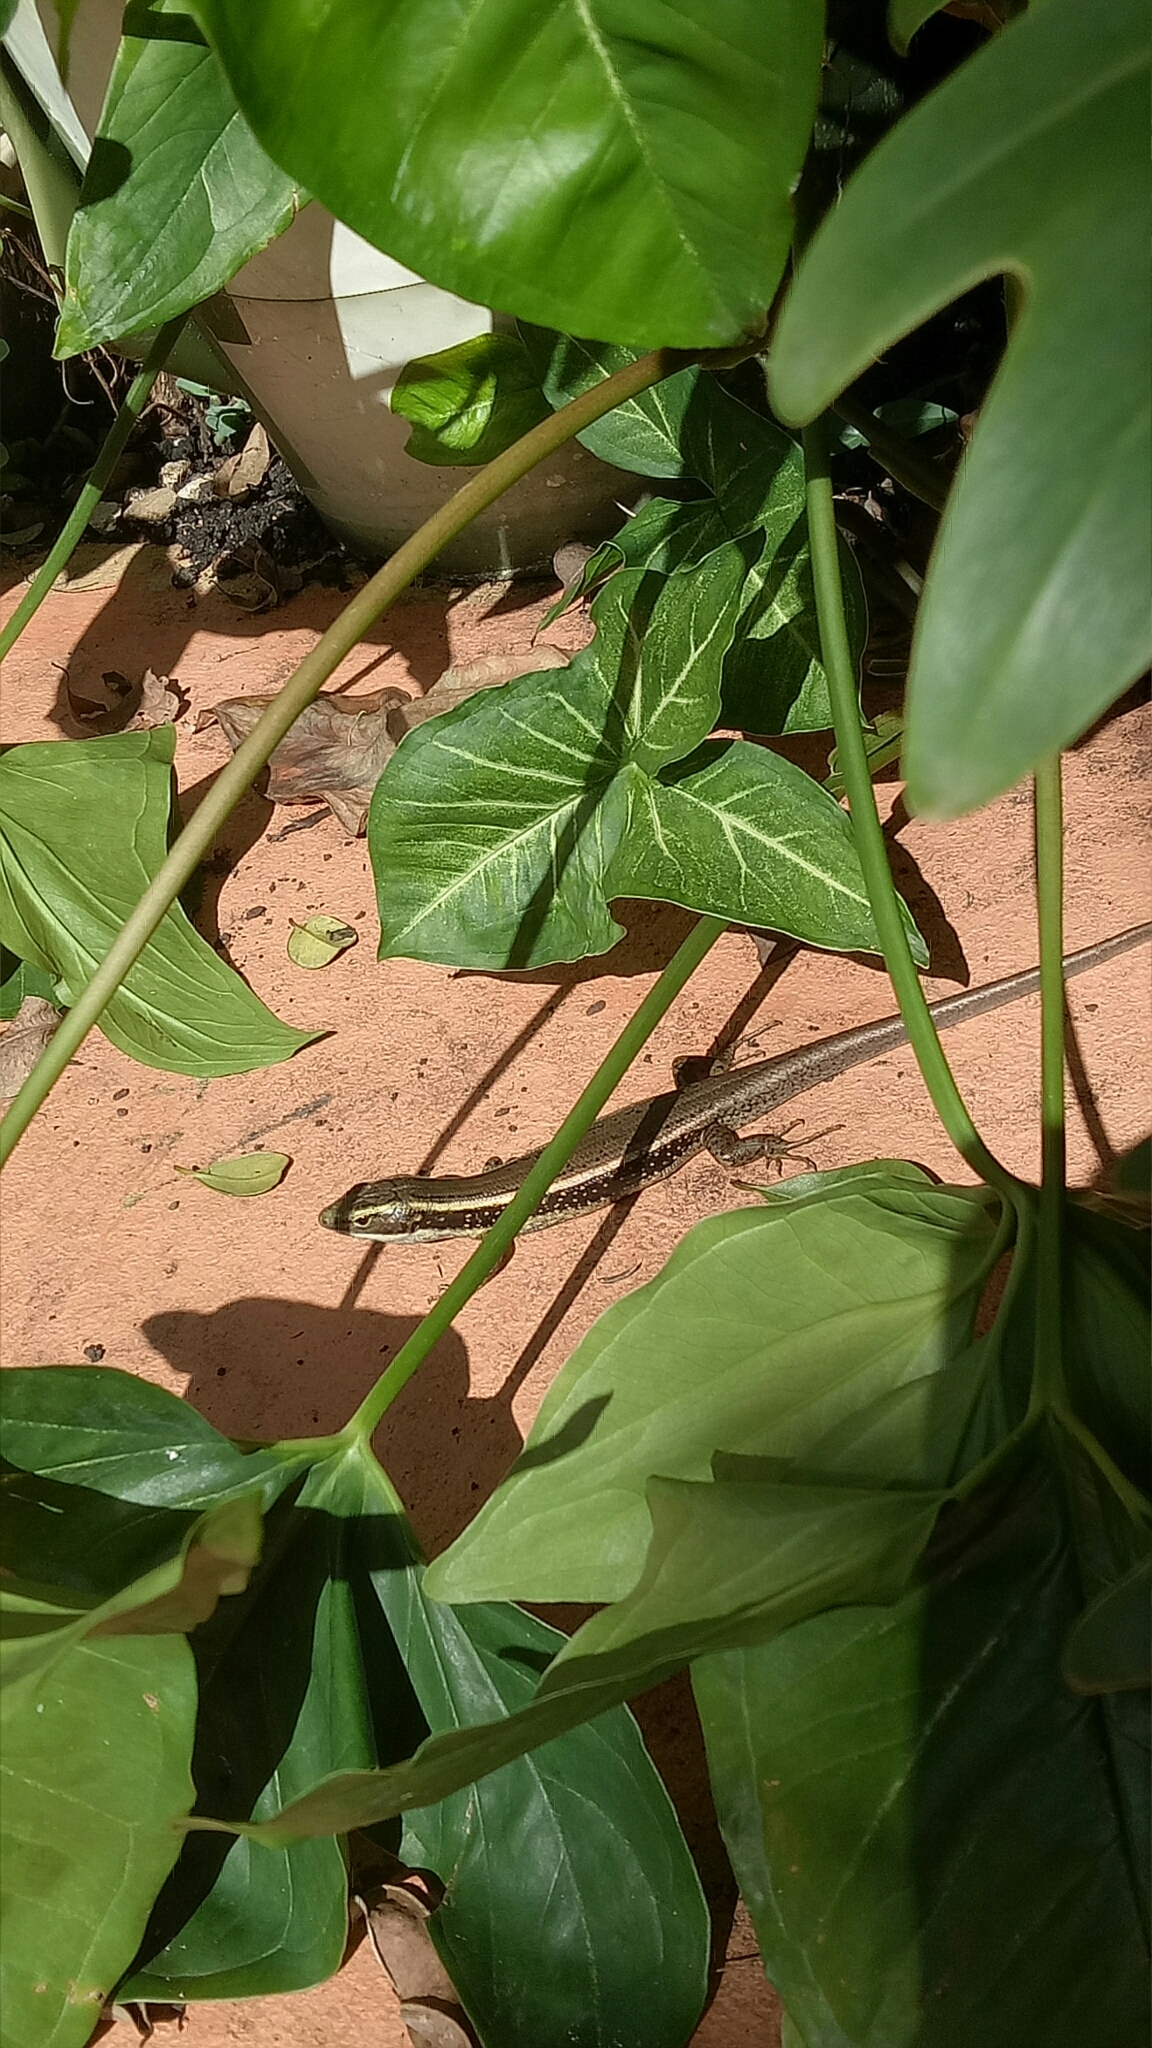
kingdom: Animalia
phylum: Chordata
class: Squamata
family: Scincidae
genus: Eulamprus
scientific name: Eulamprus quoyii
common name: Eastern water skink
